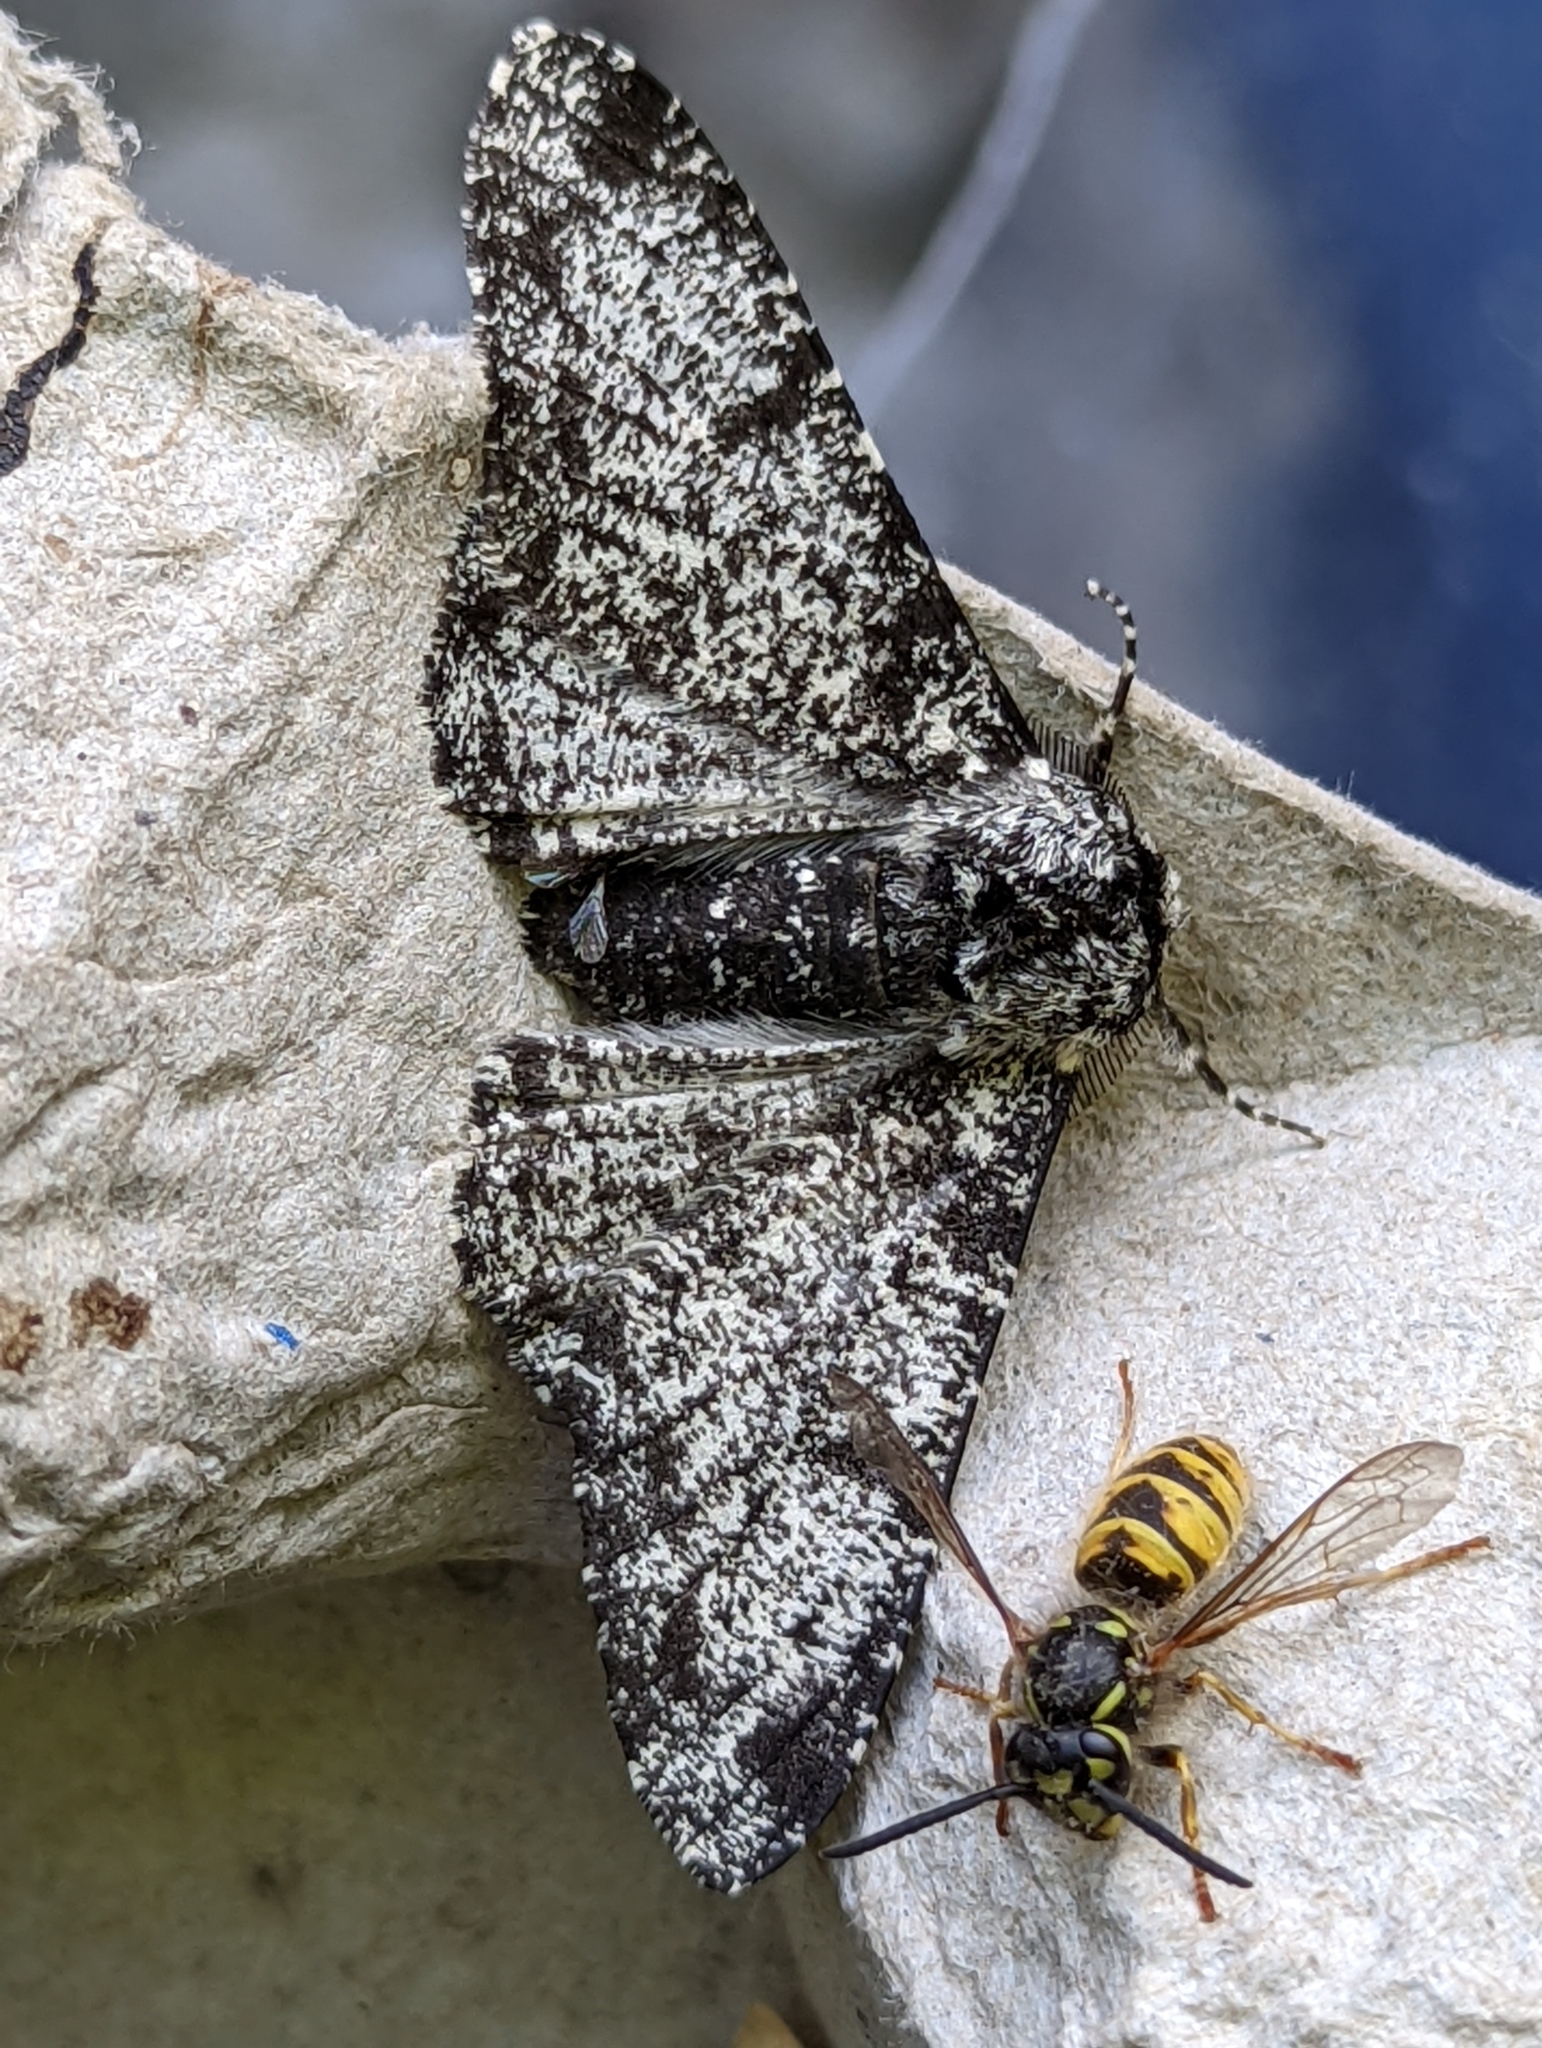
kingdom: Animalia
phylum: Arthropoda
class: Insecta
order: Lepidoptera
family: Geometridae
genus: Biston
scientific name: Biston betularia
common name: Peppered moth
